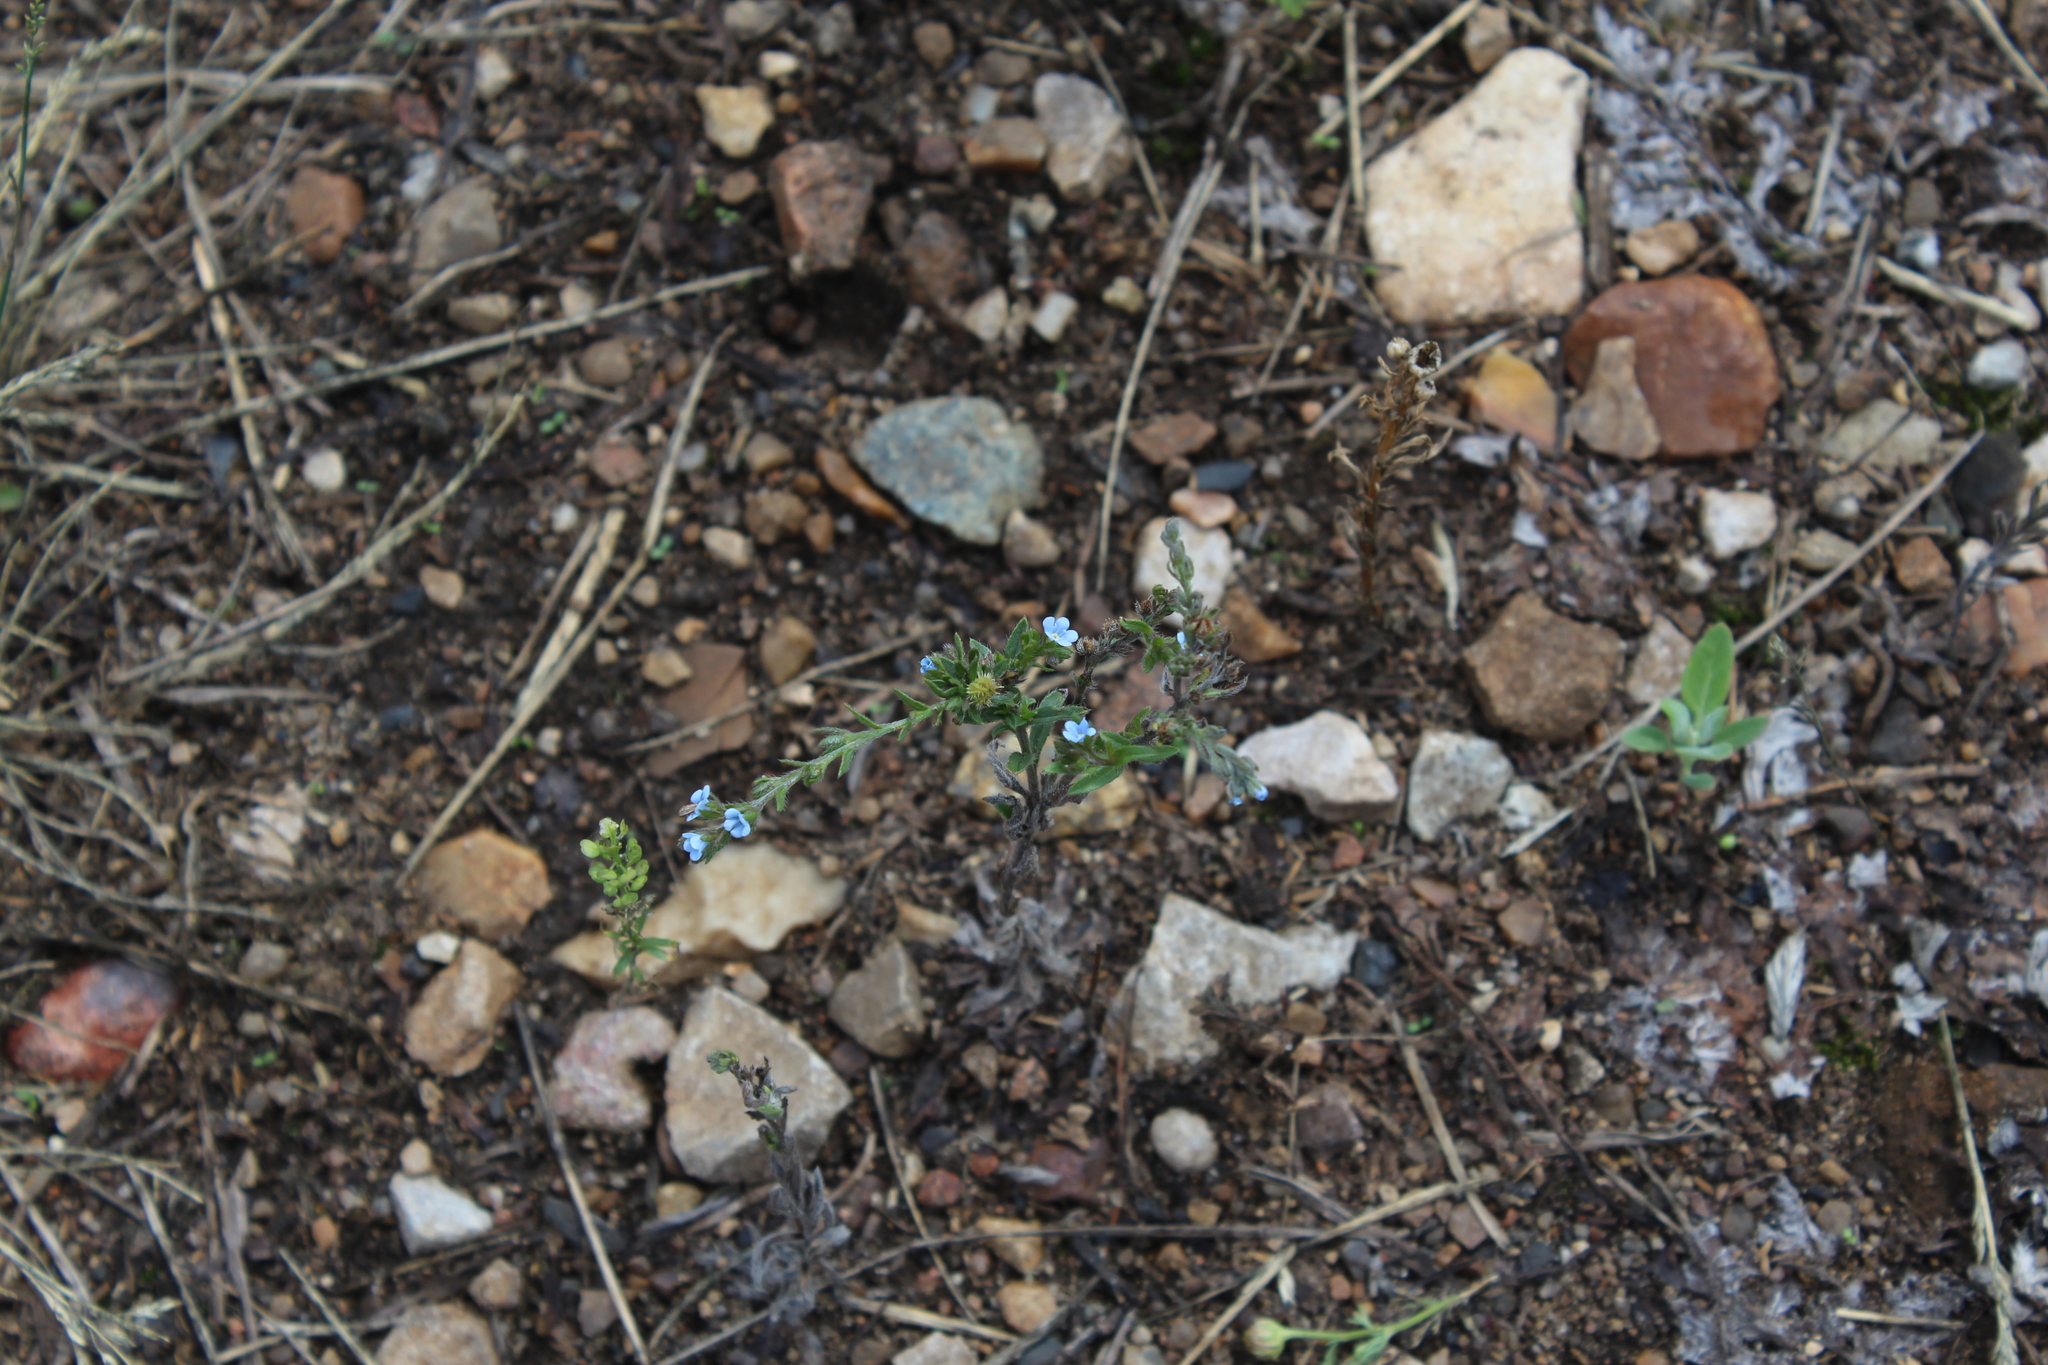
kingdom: Plantae
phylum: Tracheophyta
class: Magnoliopsida
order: Boraginales
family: Boraginaceae
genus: Lappula
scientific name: Lappula squarrosa
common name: European stickseed
